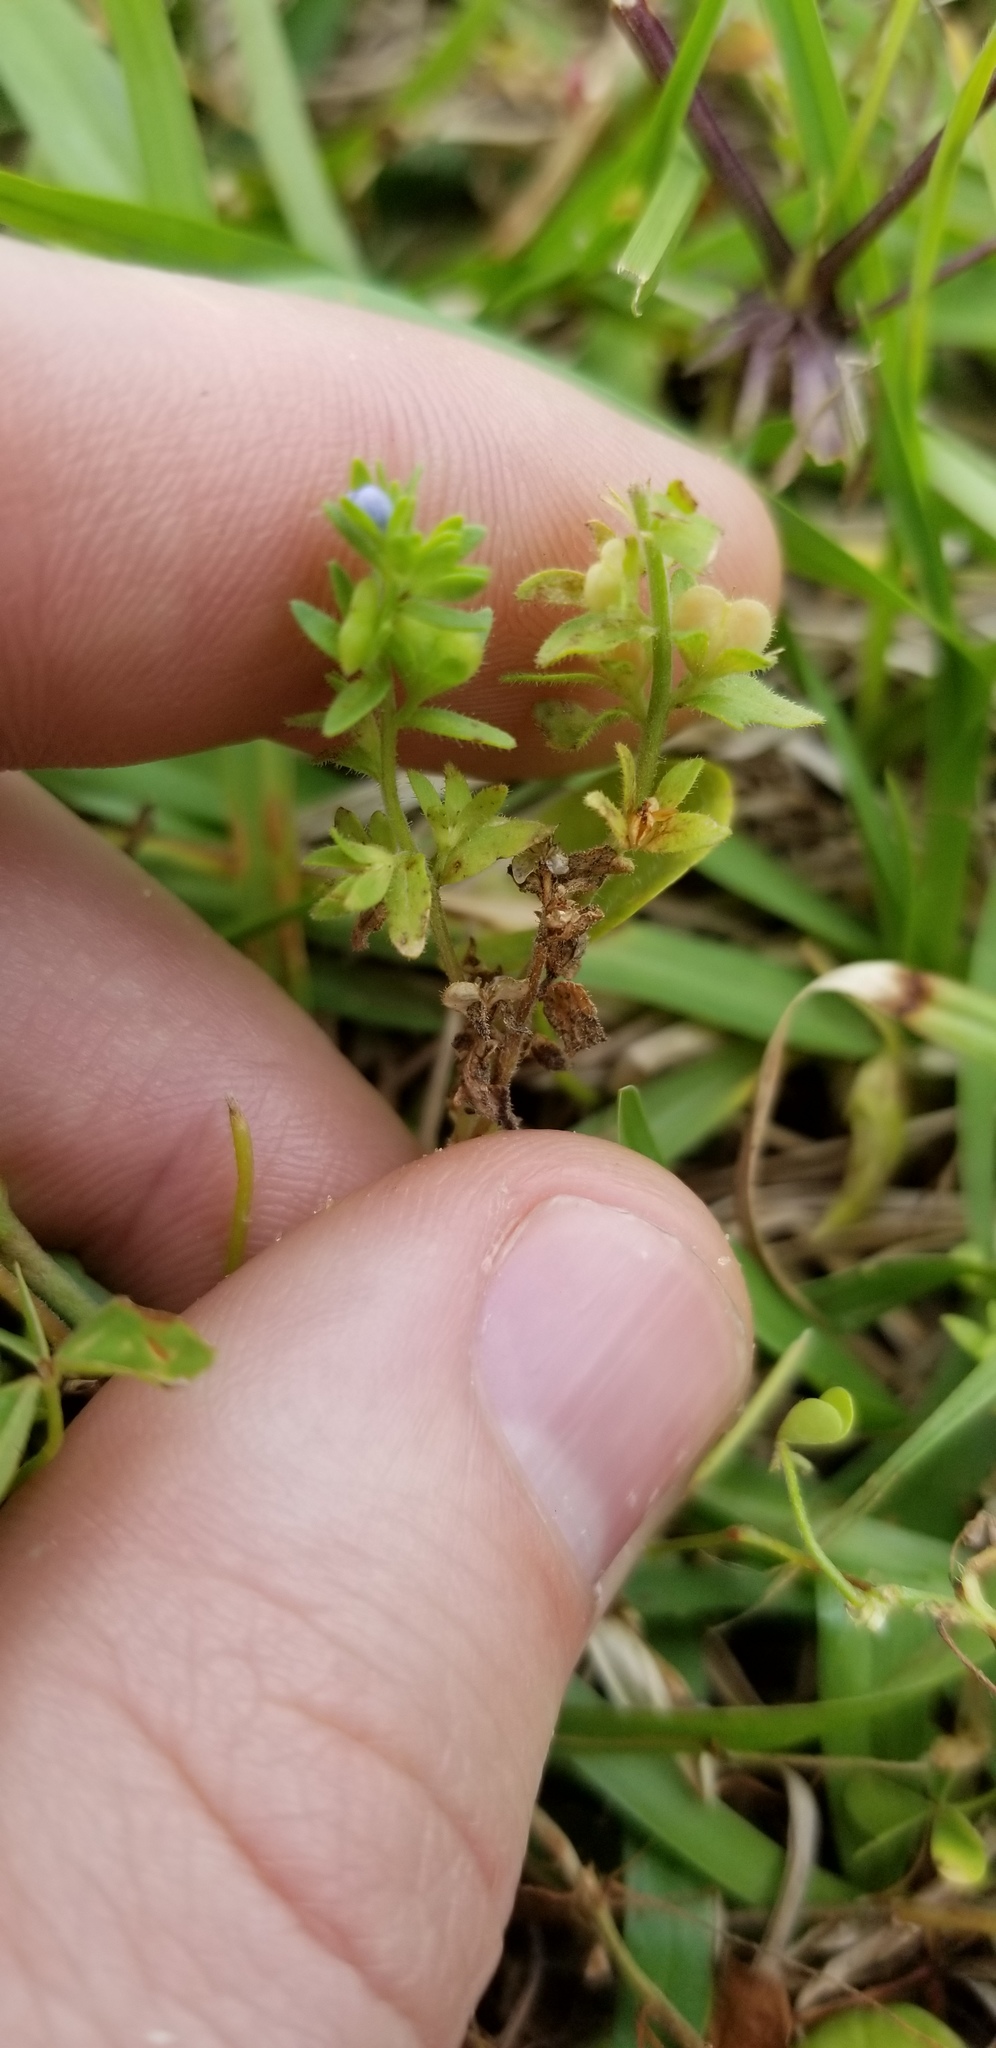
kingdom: Plantae
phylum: Tracheophyta
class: Magnoliopsida
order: Lamiales
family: Plantaginaceae
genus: Veronica
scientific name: Veronica arvensis
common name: Corn speedwell
